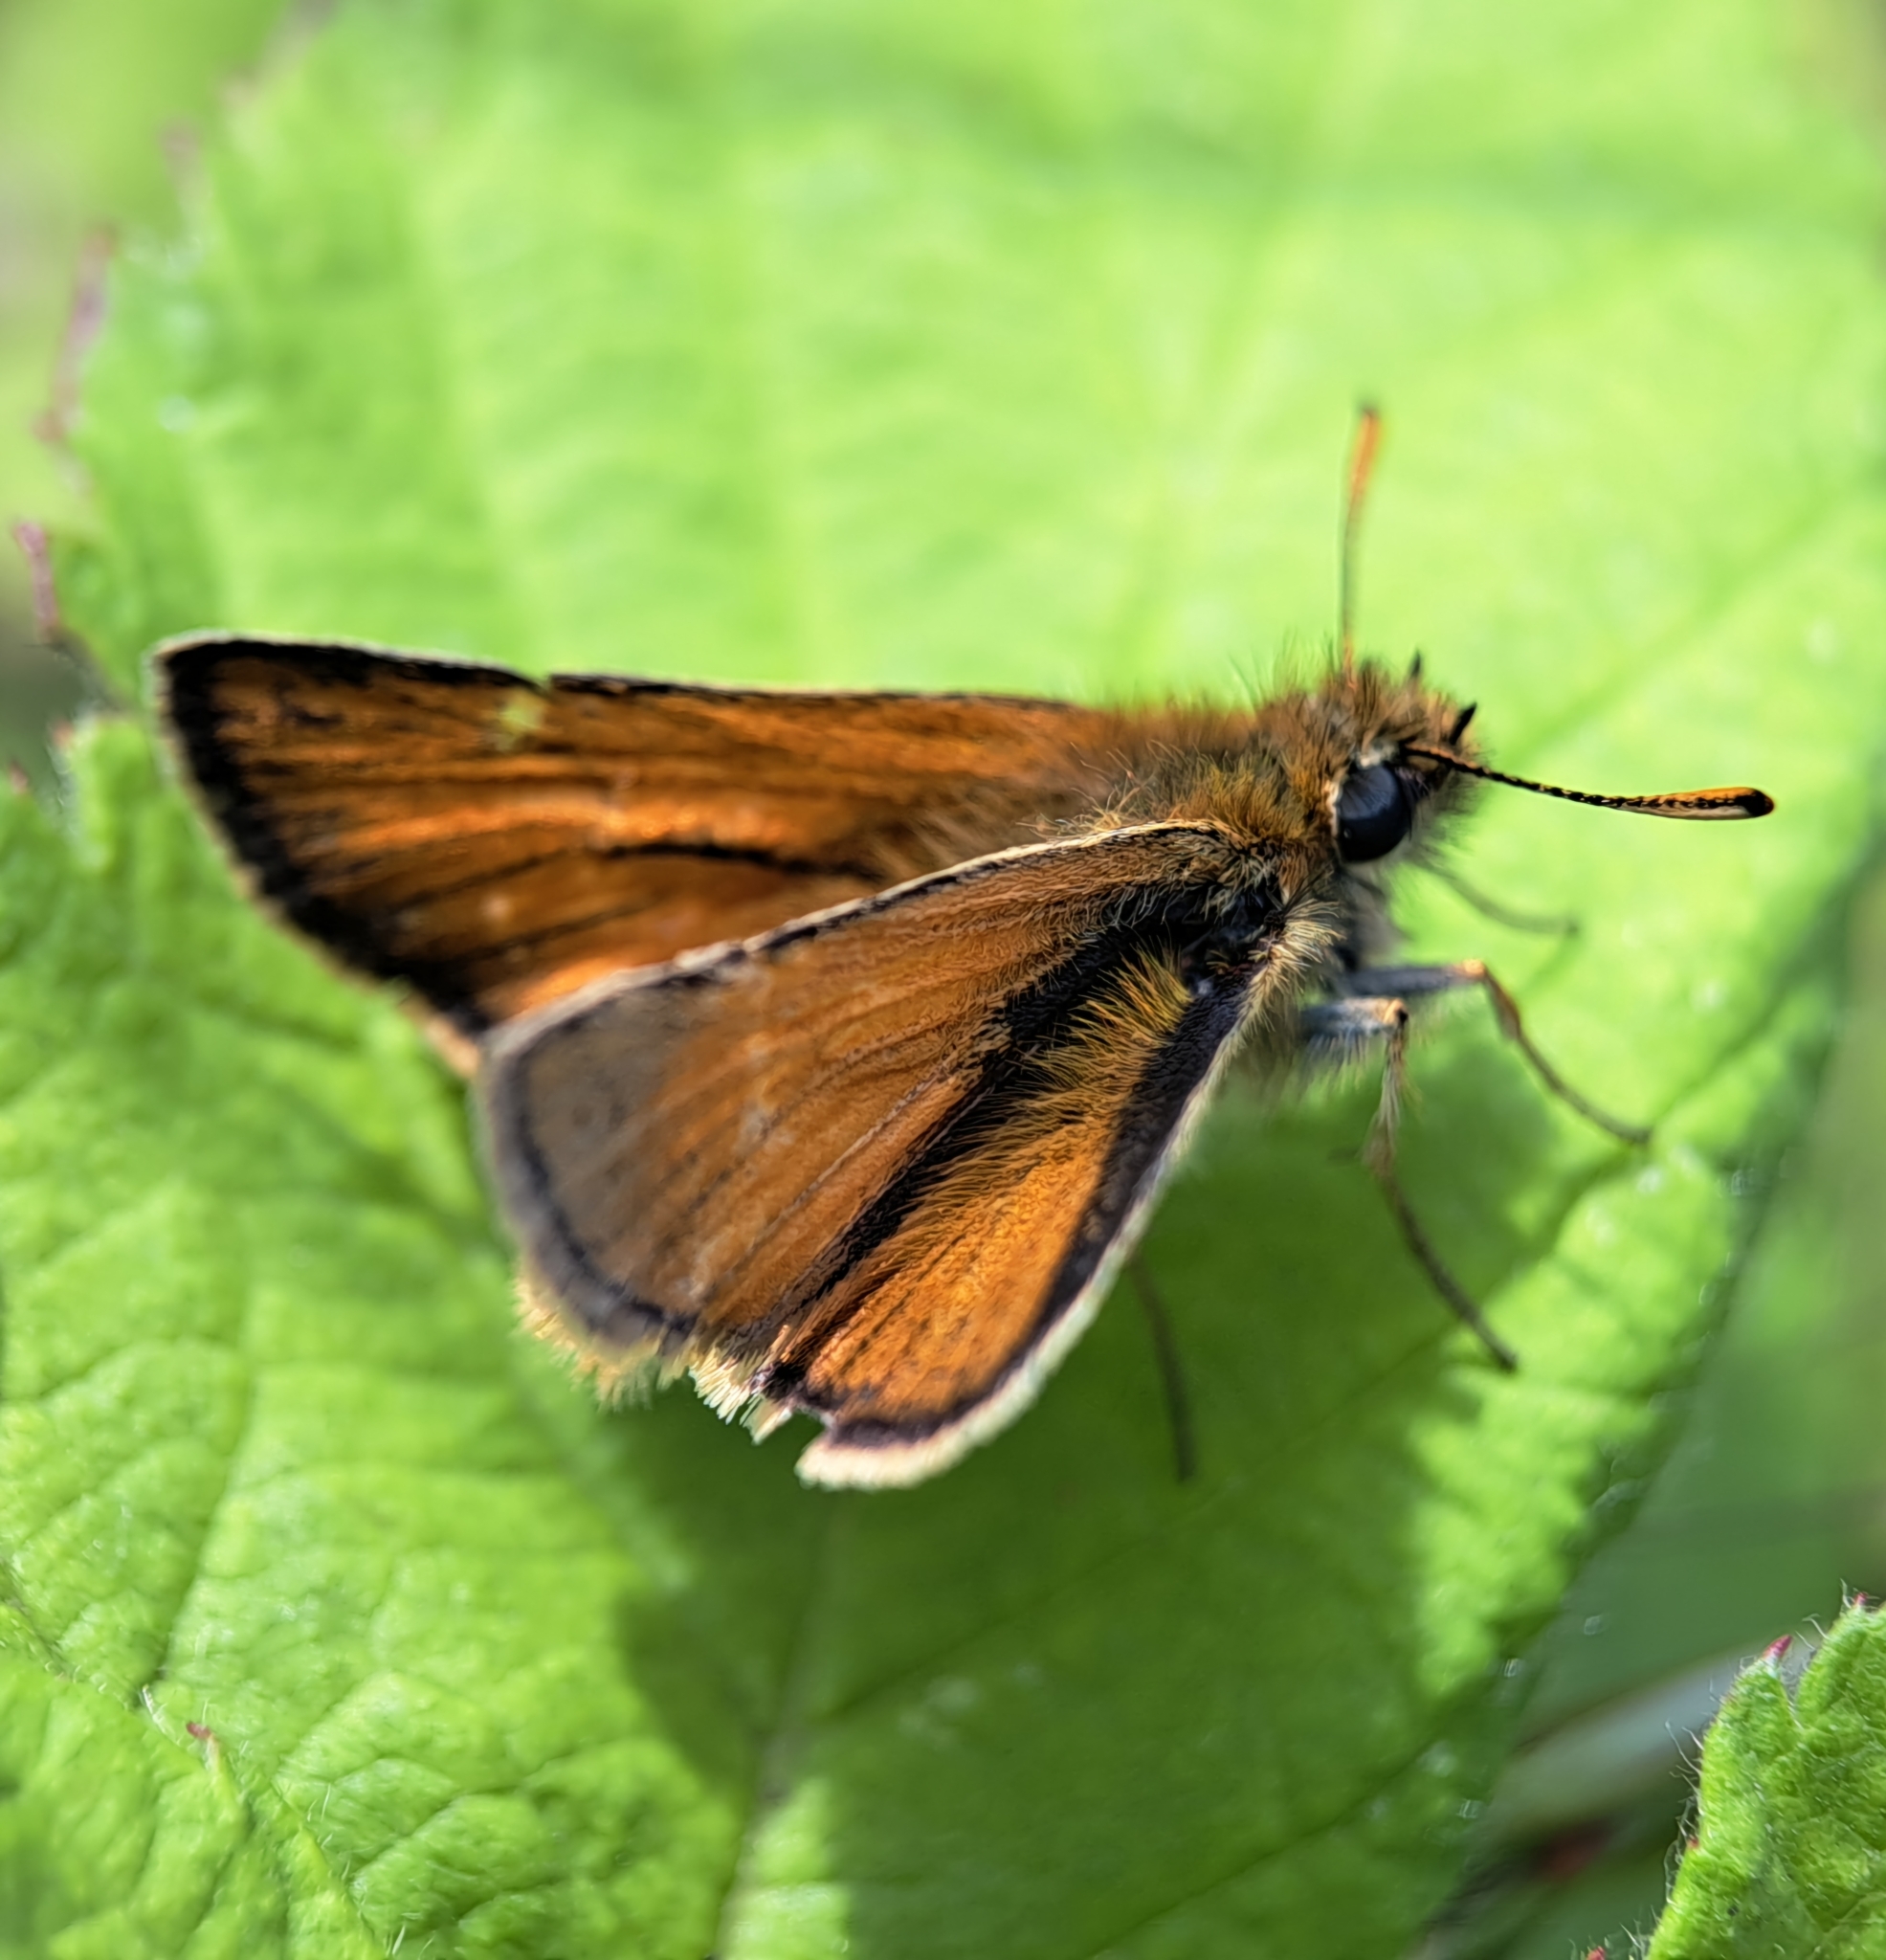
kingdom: Animalia
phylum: Arthropoda
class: Insecta
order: Lepidoptera
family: Hesperiidae
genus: Thymelicus
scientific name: Thymelicus sylvestris
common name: Small skipper
